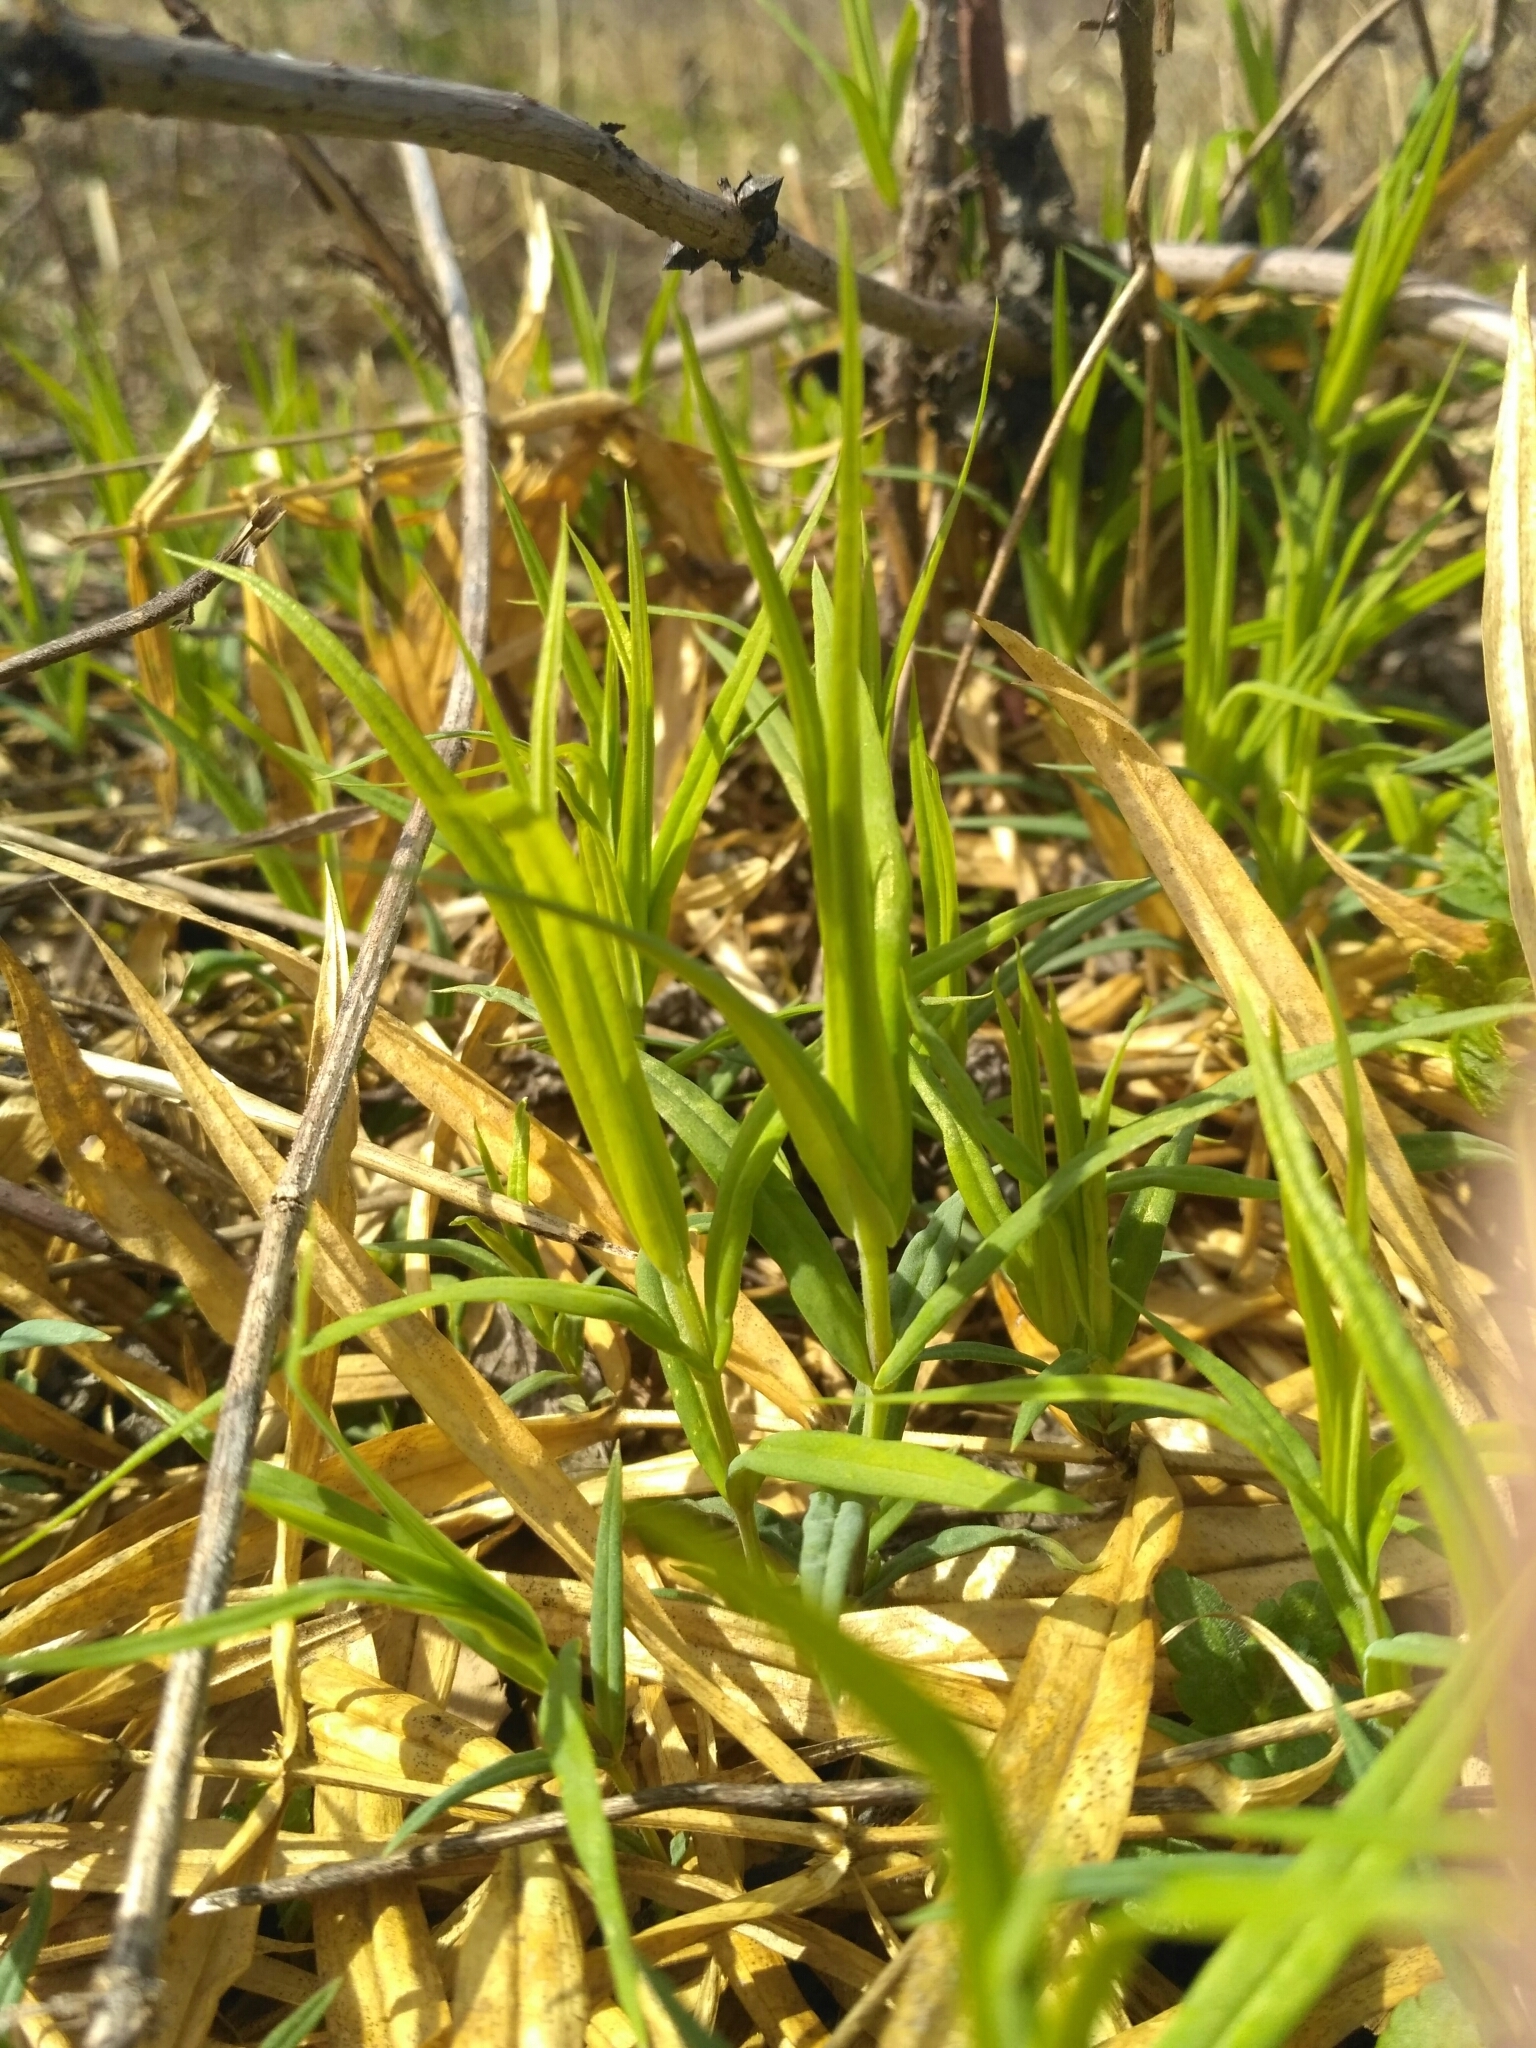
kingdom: Plantae
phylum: Tracheophyta
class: Magnoliopsida
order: Caryophyllales
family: Caryophyllaceae
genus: Rabelera
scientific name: Rabelera holostea
